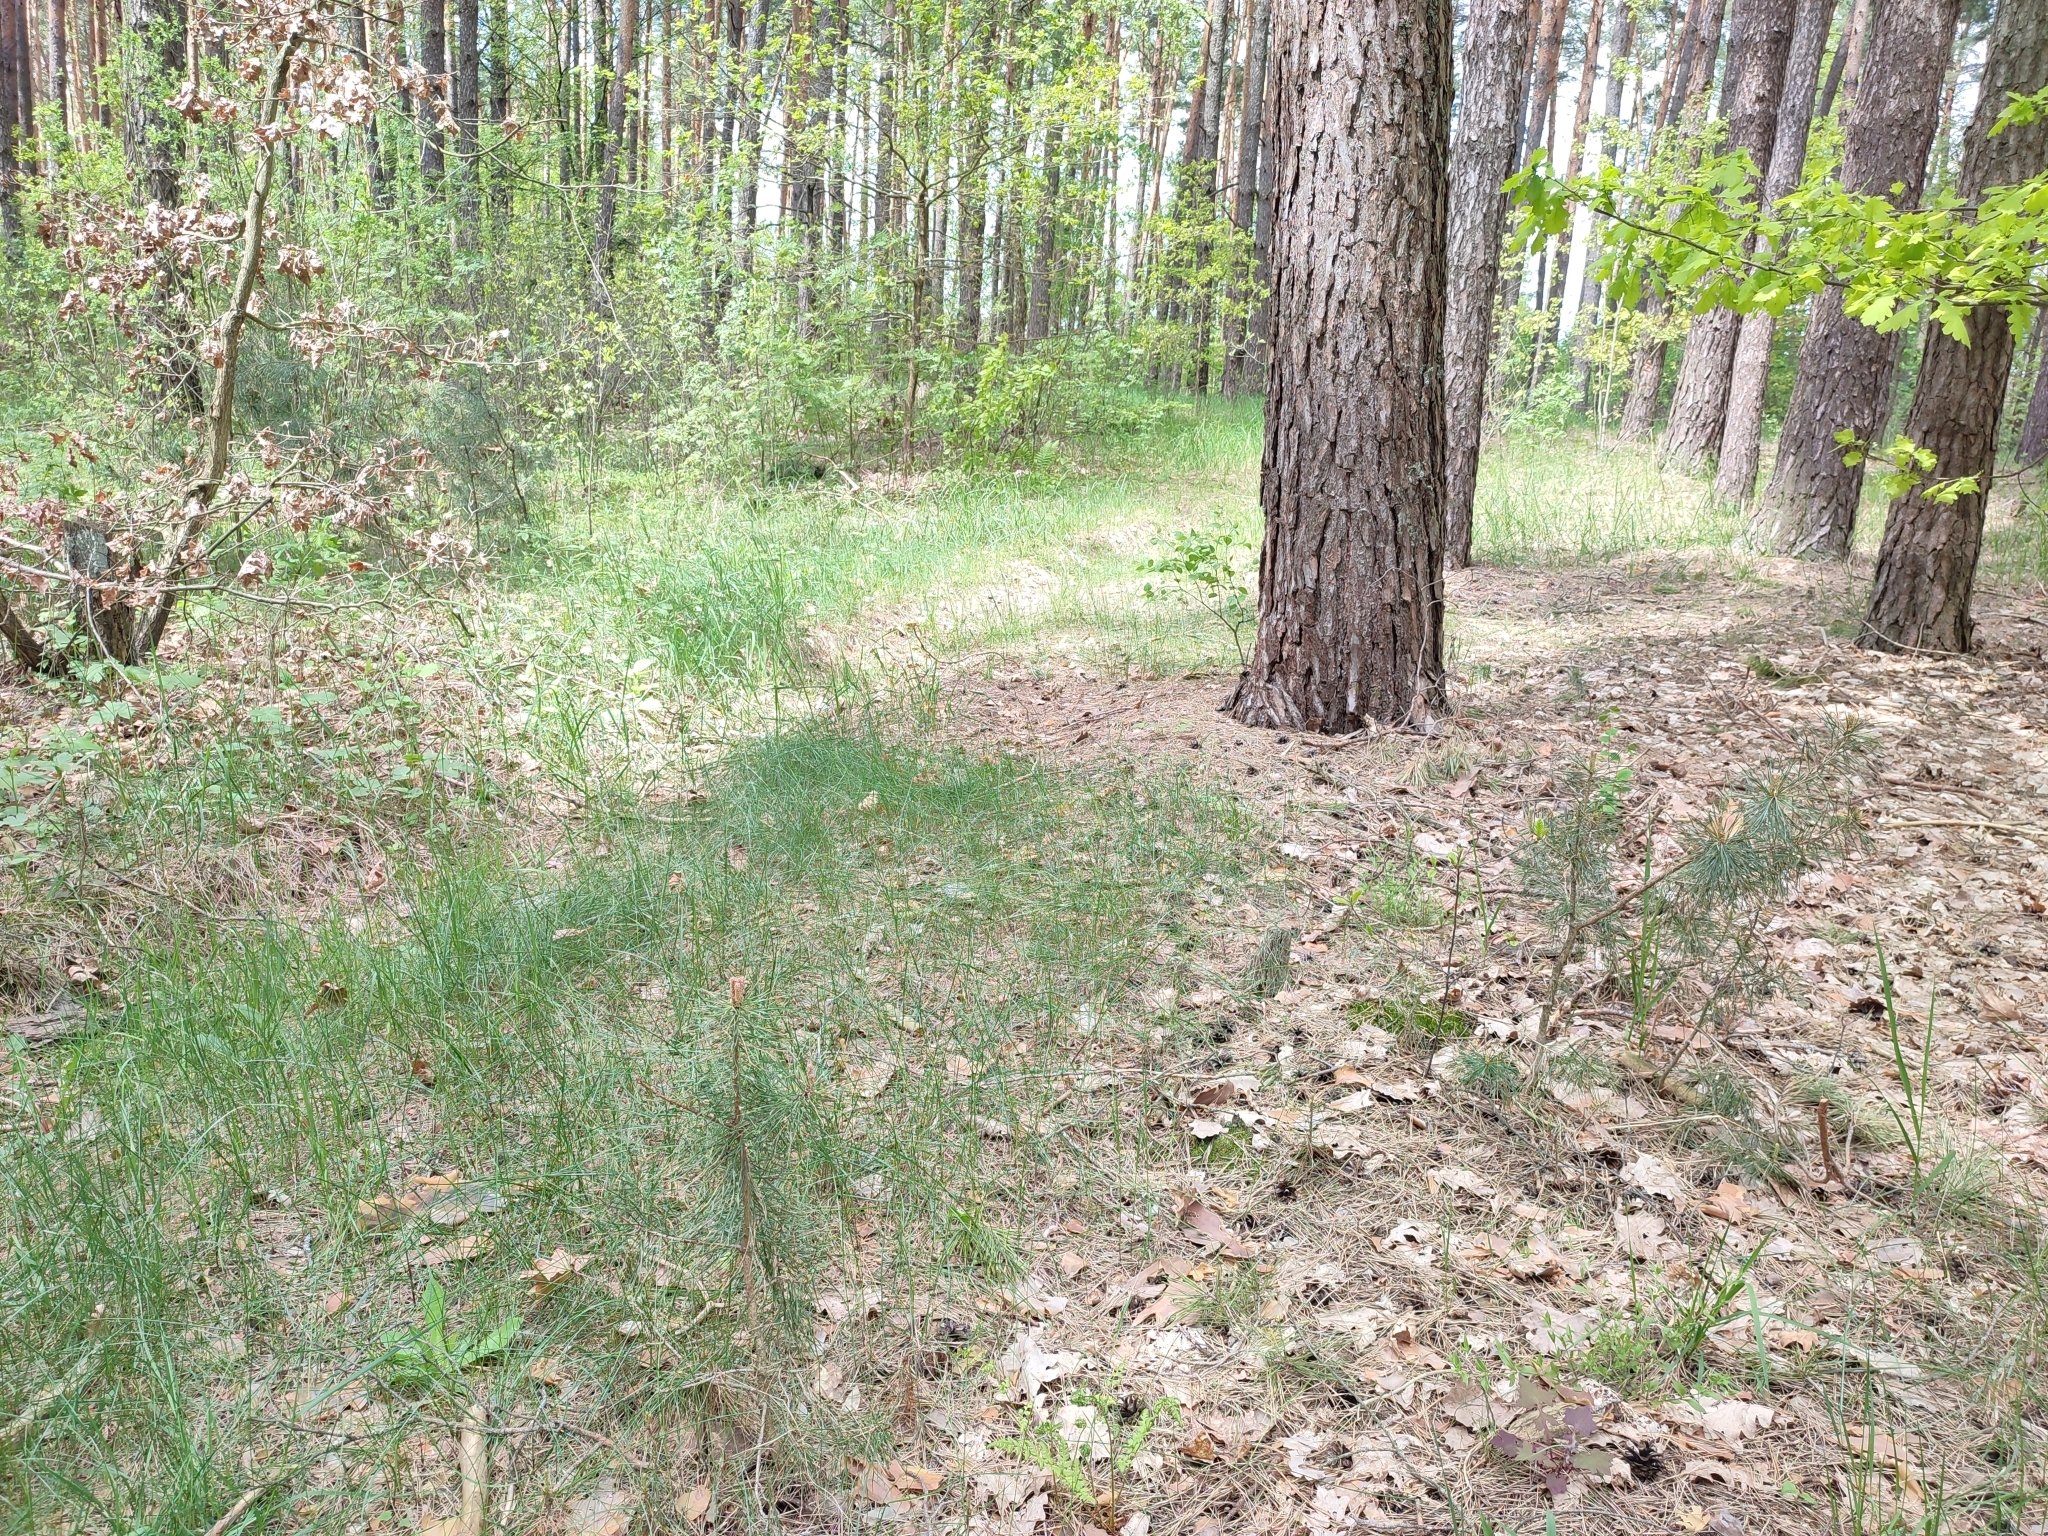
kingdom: Plantae
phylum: Tracheophyta
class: Pinopsida
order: Pinales
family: Pinaceae
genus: Pinus
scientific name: Pinus sylvestris
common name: Scots pine
